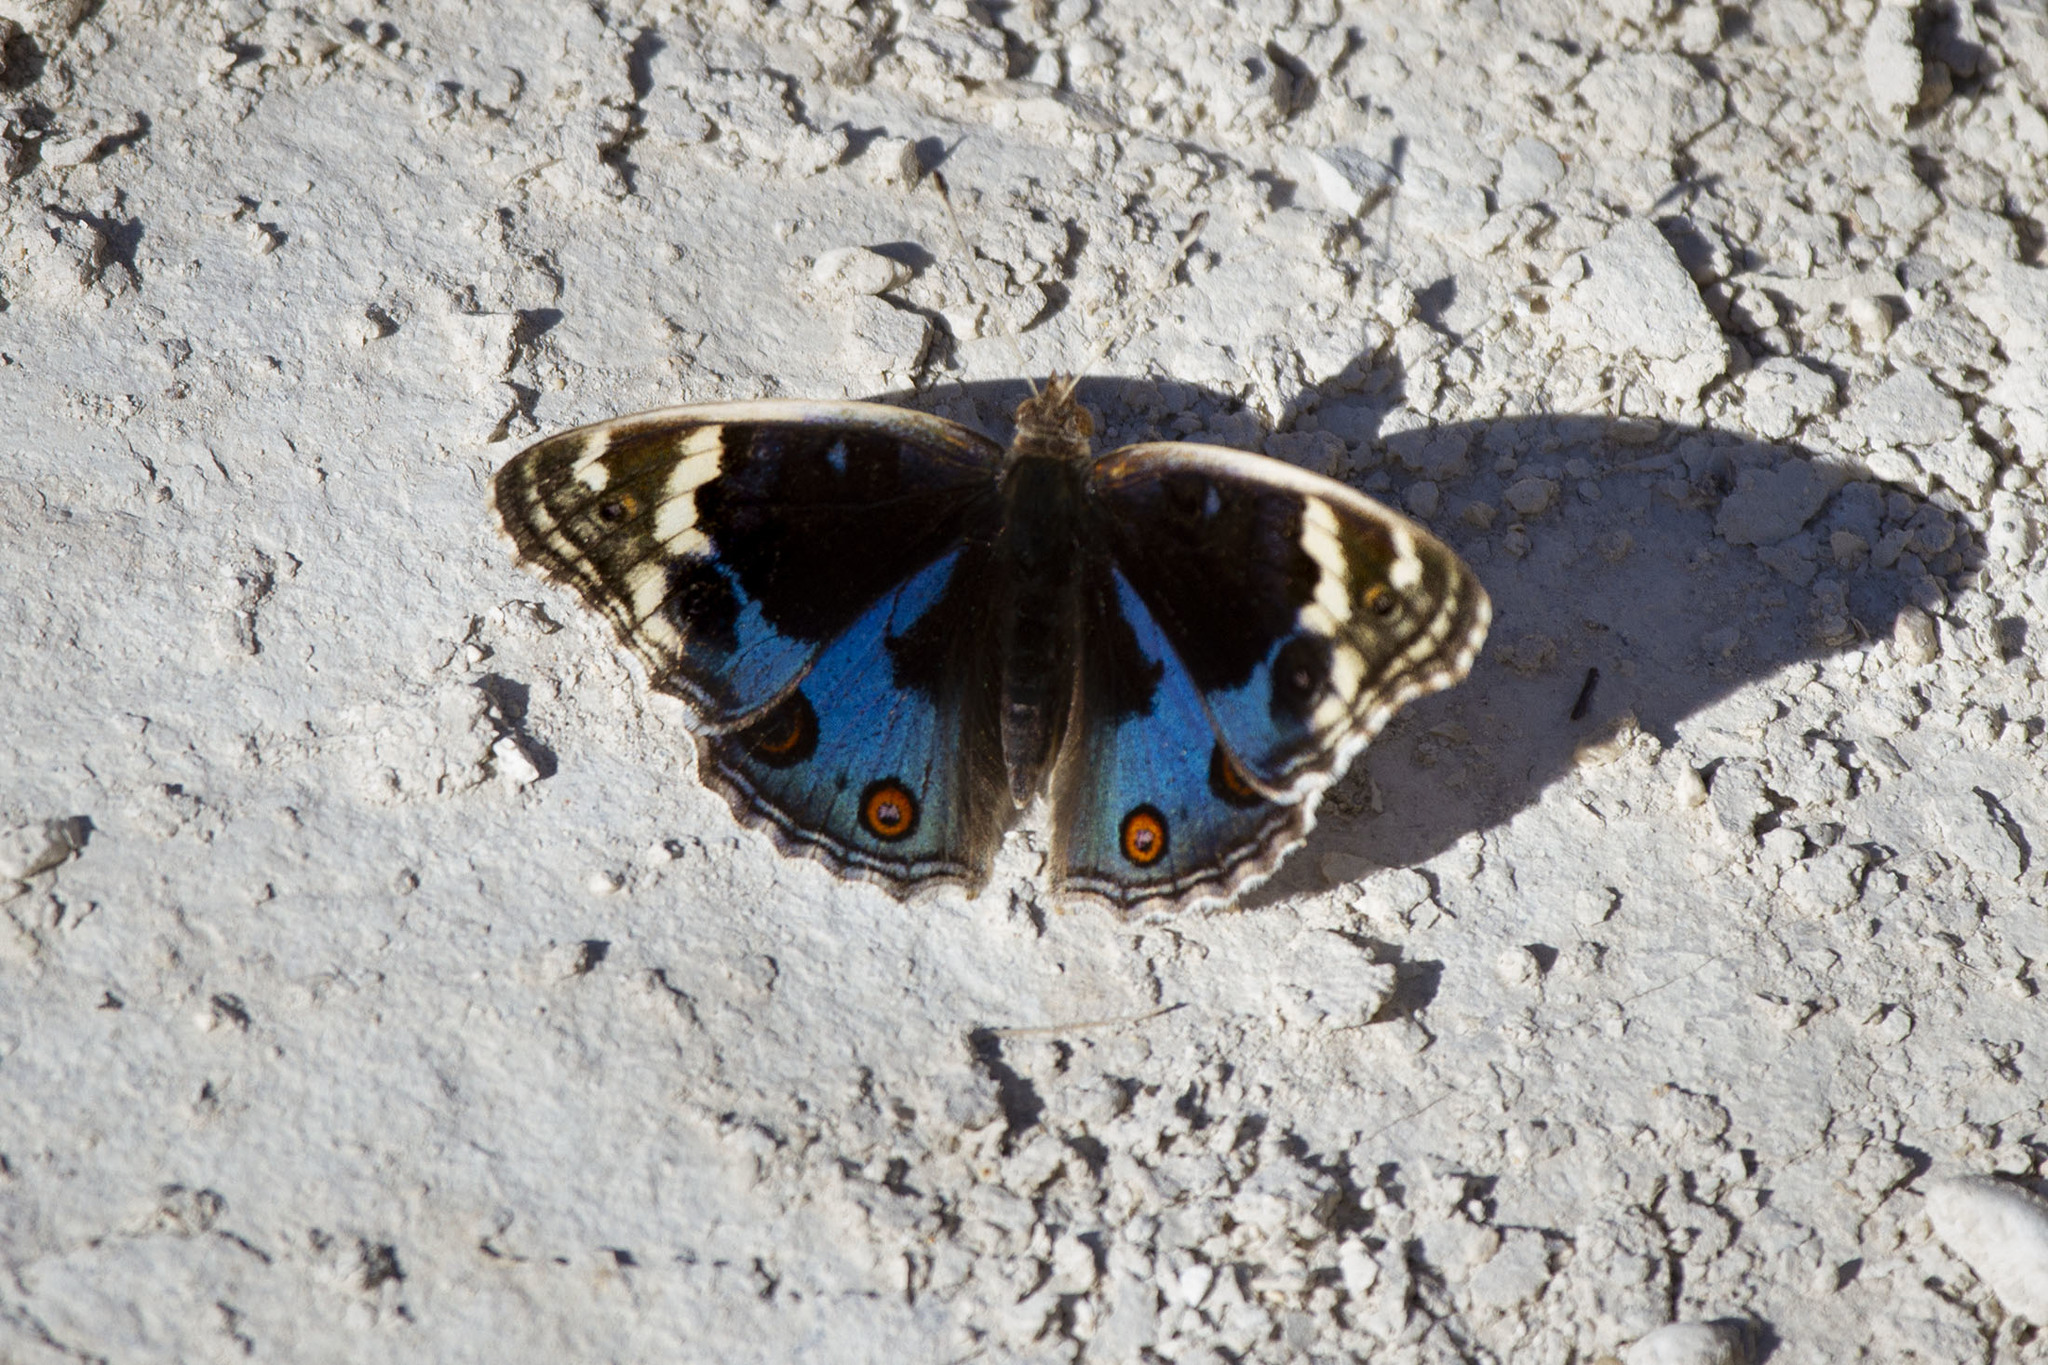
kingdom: Animalia
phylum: Arthropoda
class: Insecta
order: Lepidoptera
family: Nymphalidae
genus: Junonia
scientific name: Junonia orithya
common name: Blue pansy
